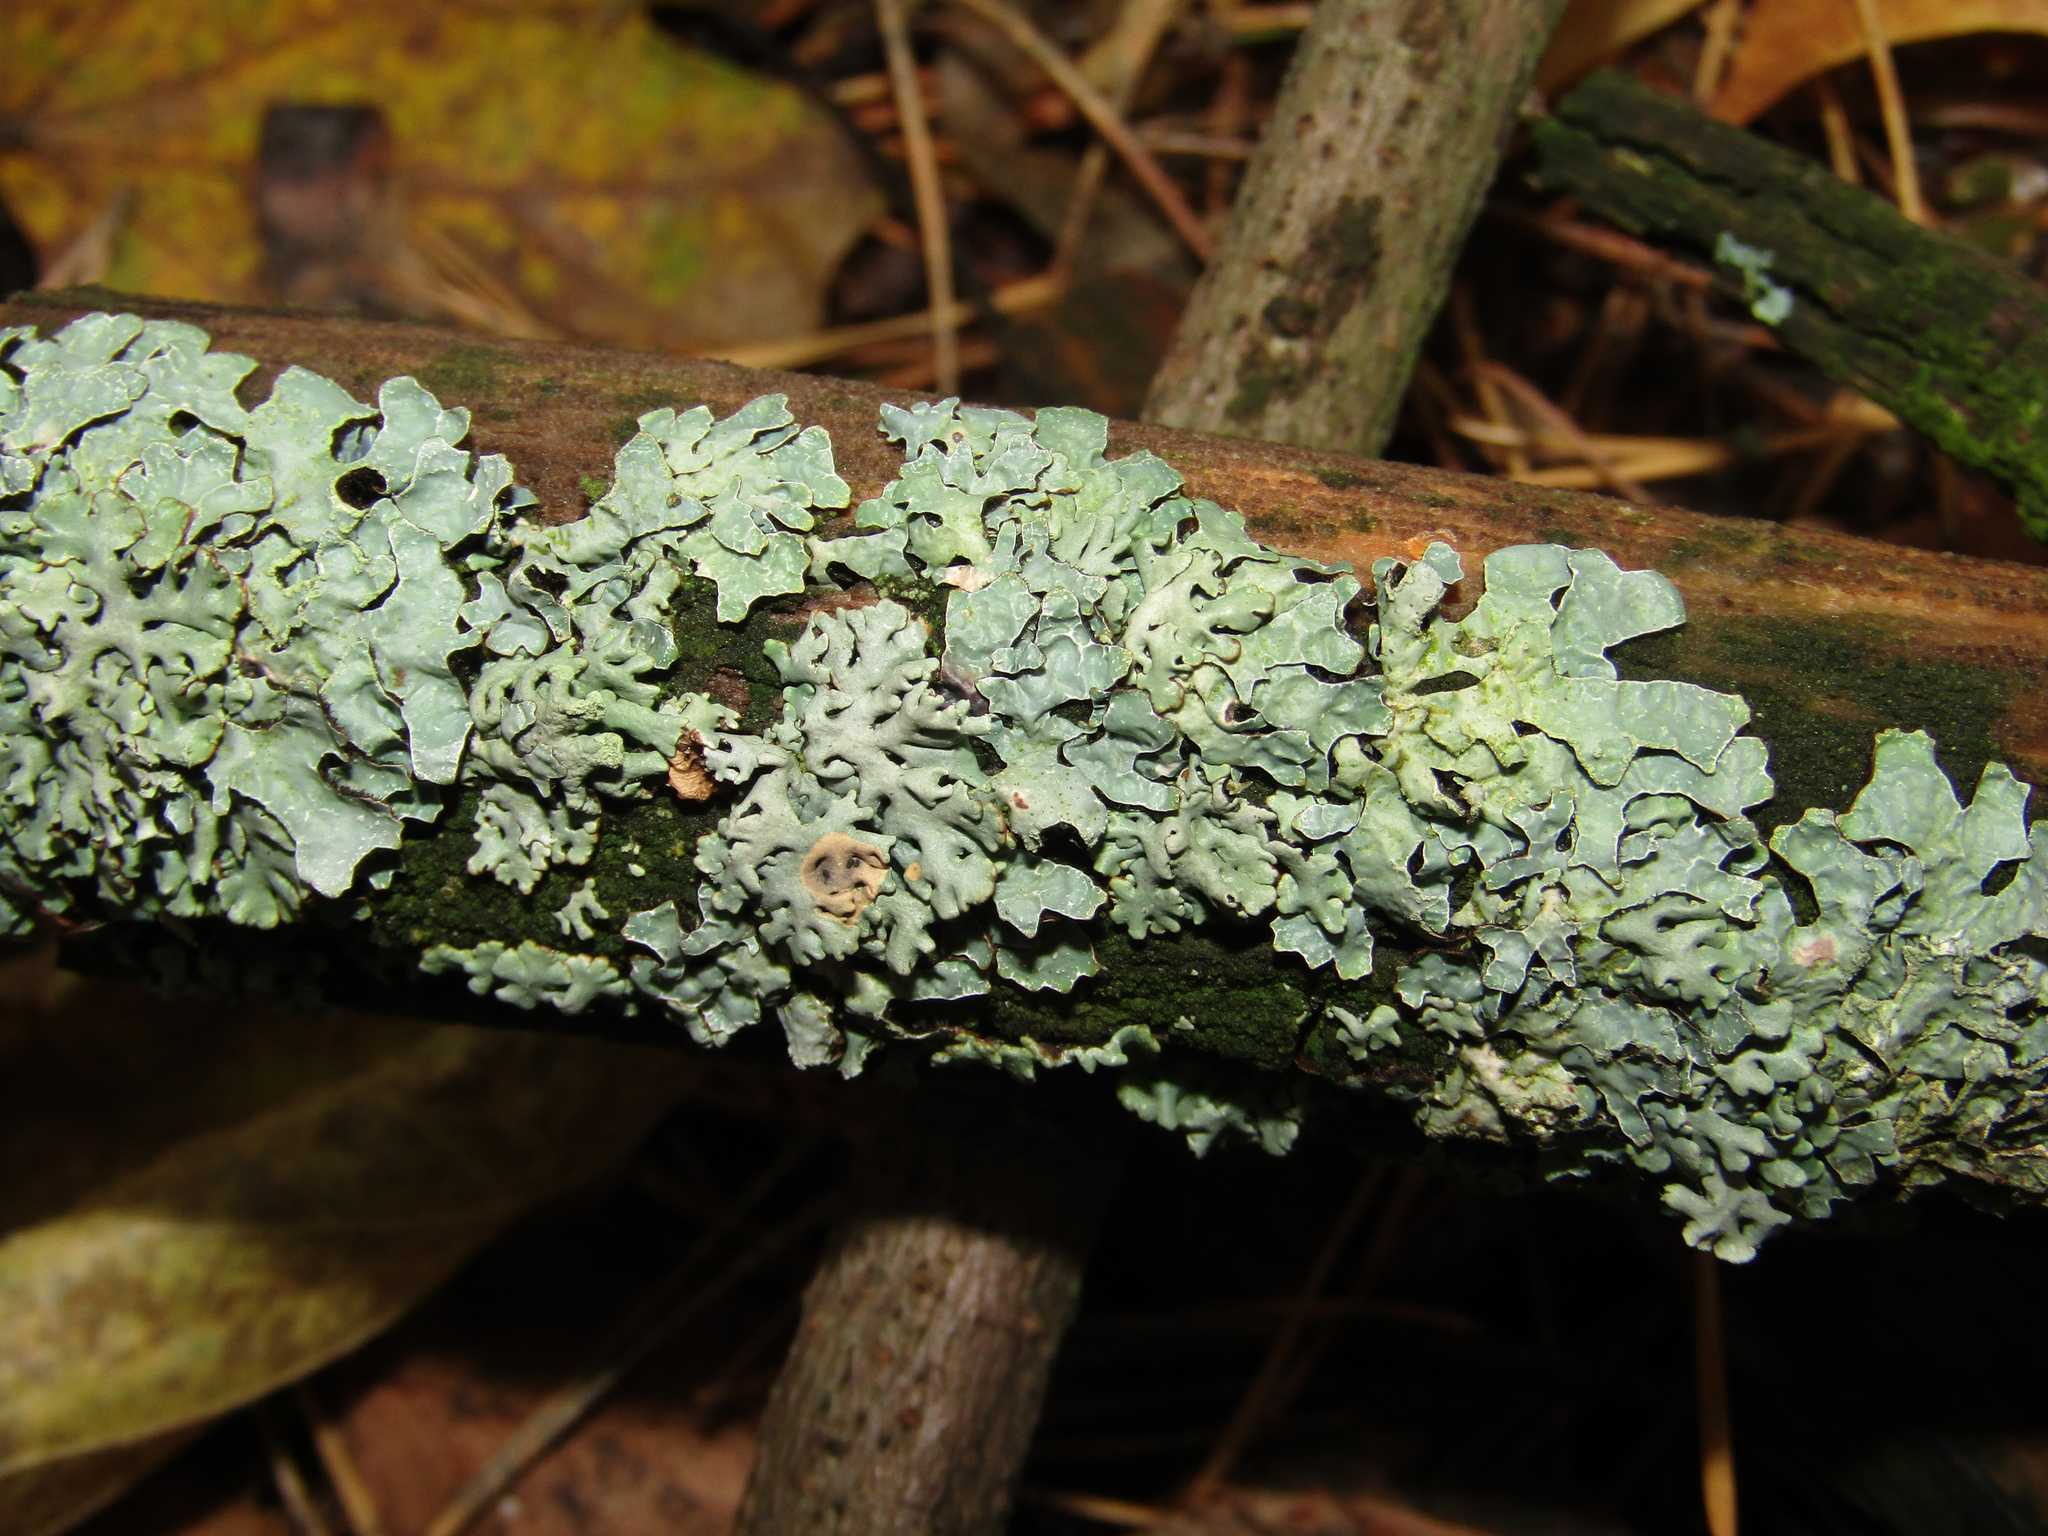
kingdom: Fungi
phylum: Ascomycota
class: Lecanoromycetes
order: Lecanorales
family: Parmeliaceae
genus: Parmelia
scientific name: Parmelia sulcata
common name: Netted shield lichen
